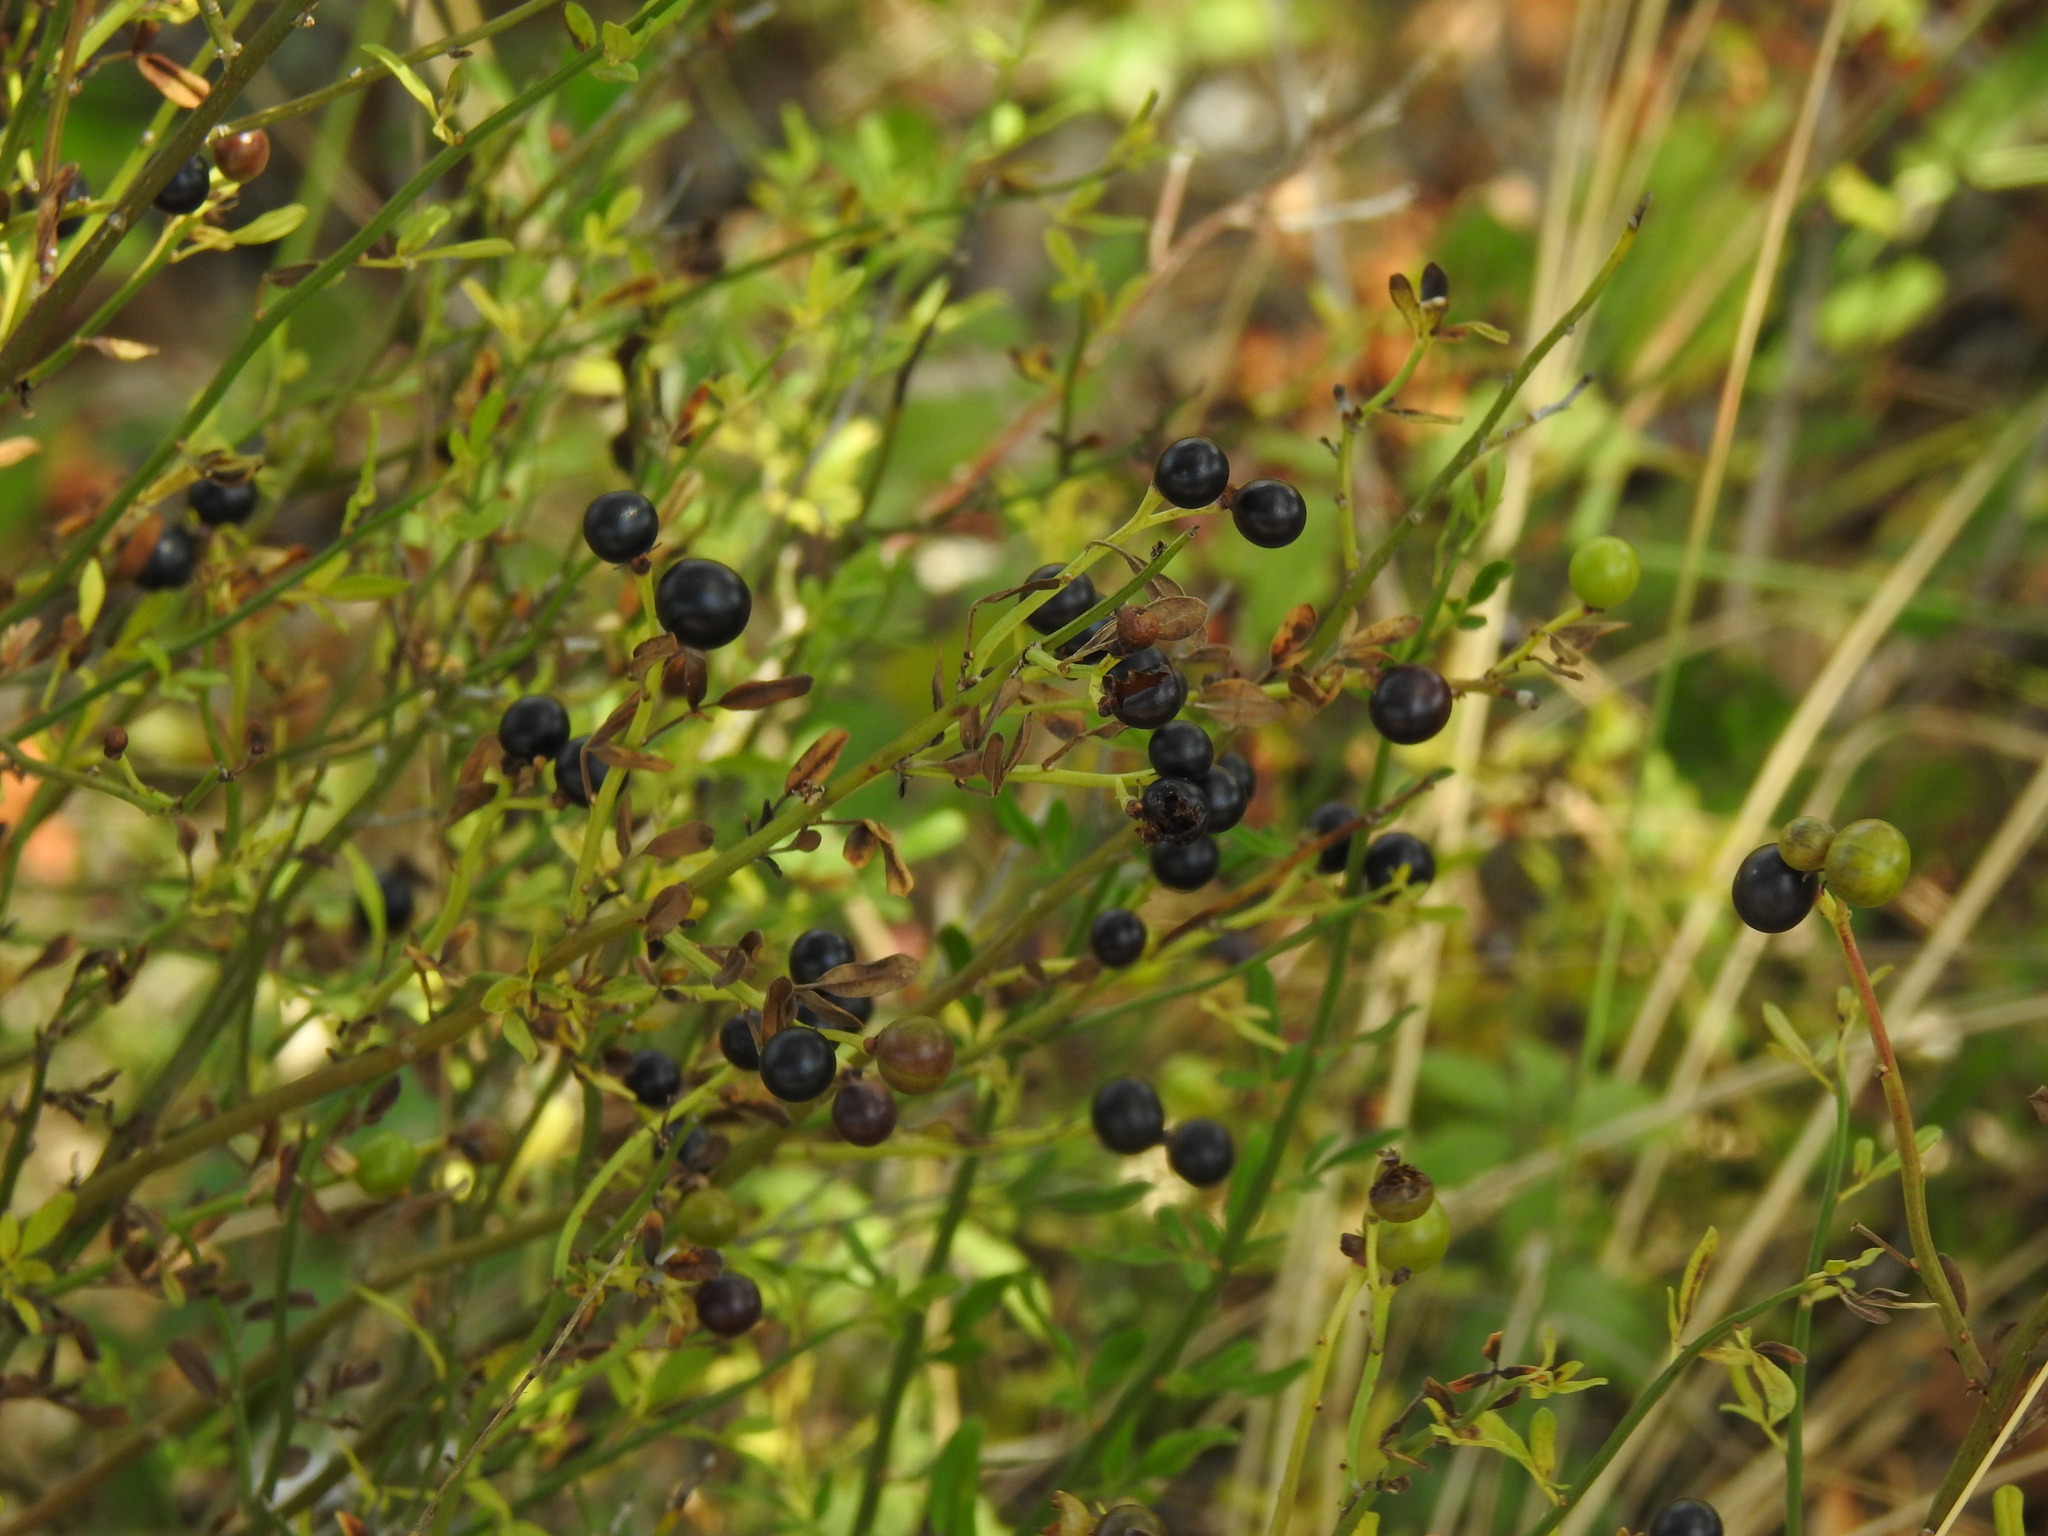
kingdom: Plantae
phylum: Tracheophyta
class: Magnoliopsida
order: Lamiales
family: Oleaceae
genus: Chrysojasminum
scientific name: Chrysojasminum fruticans
